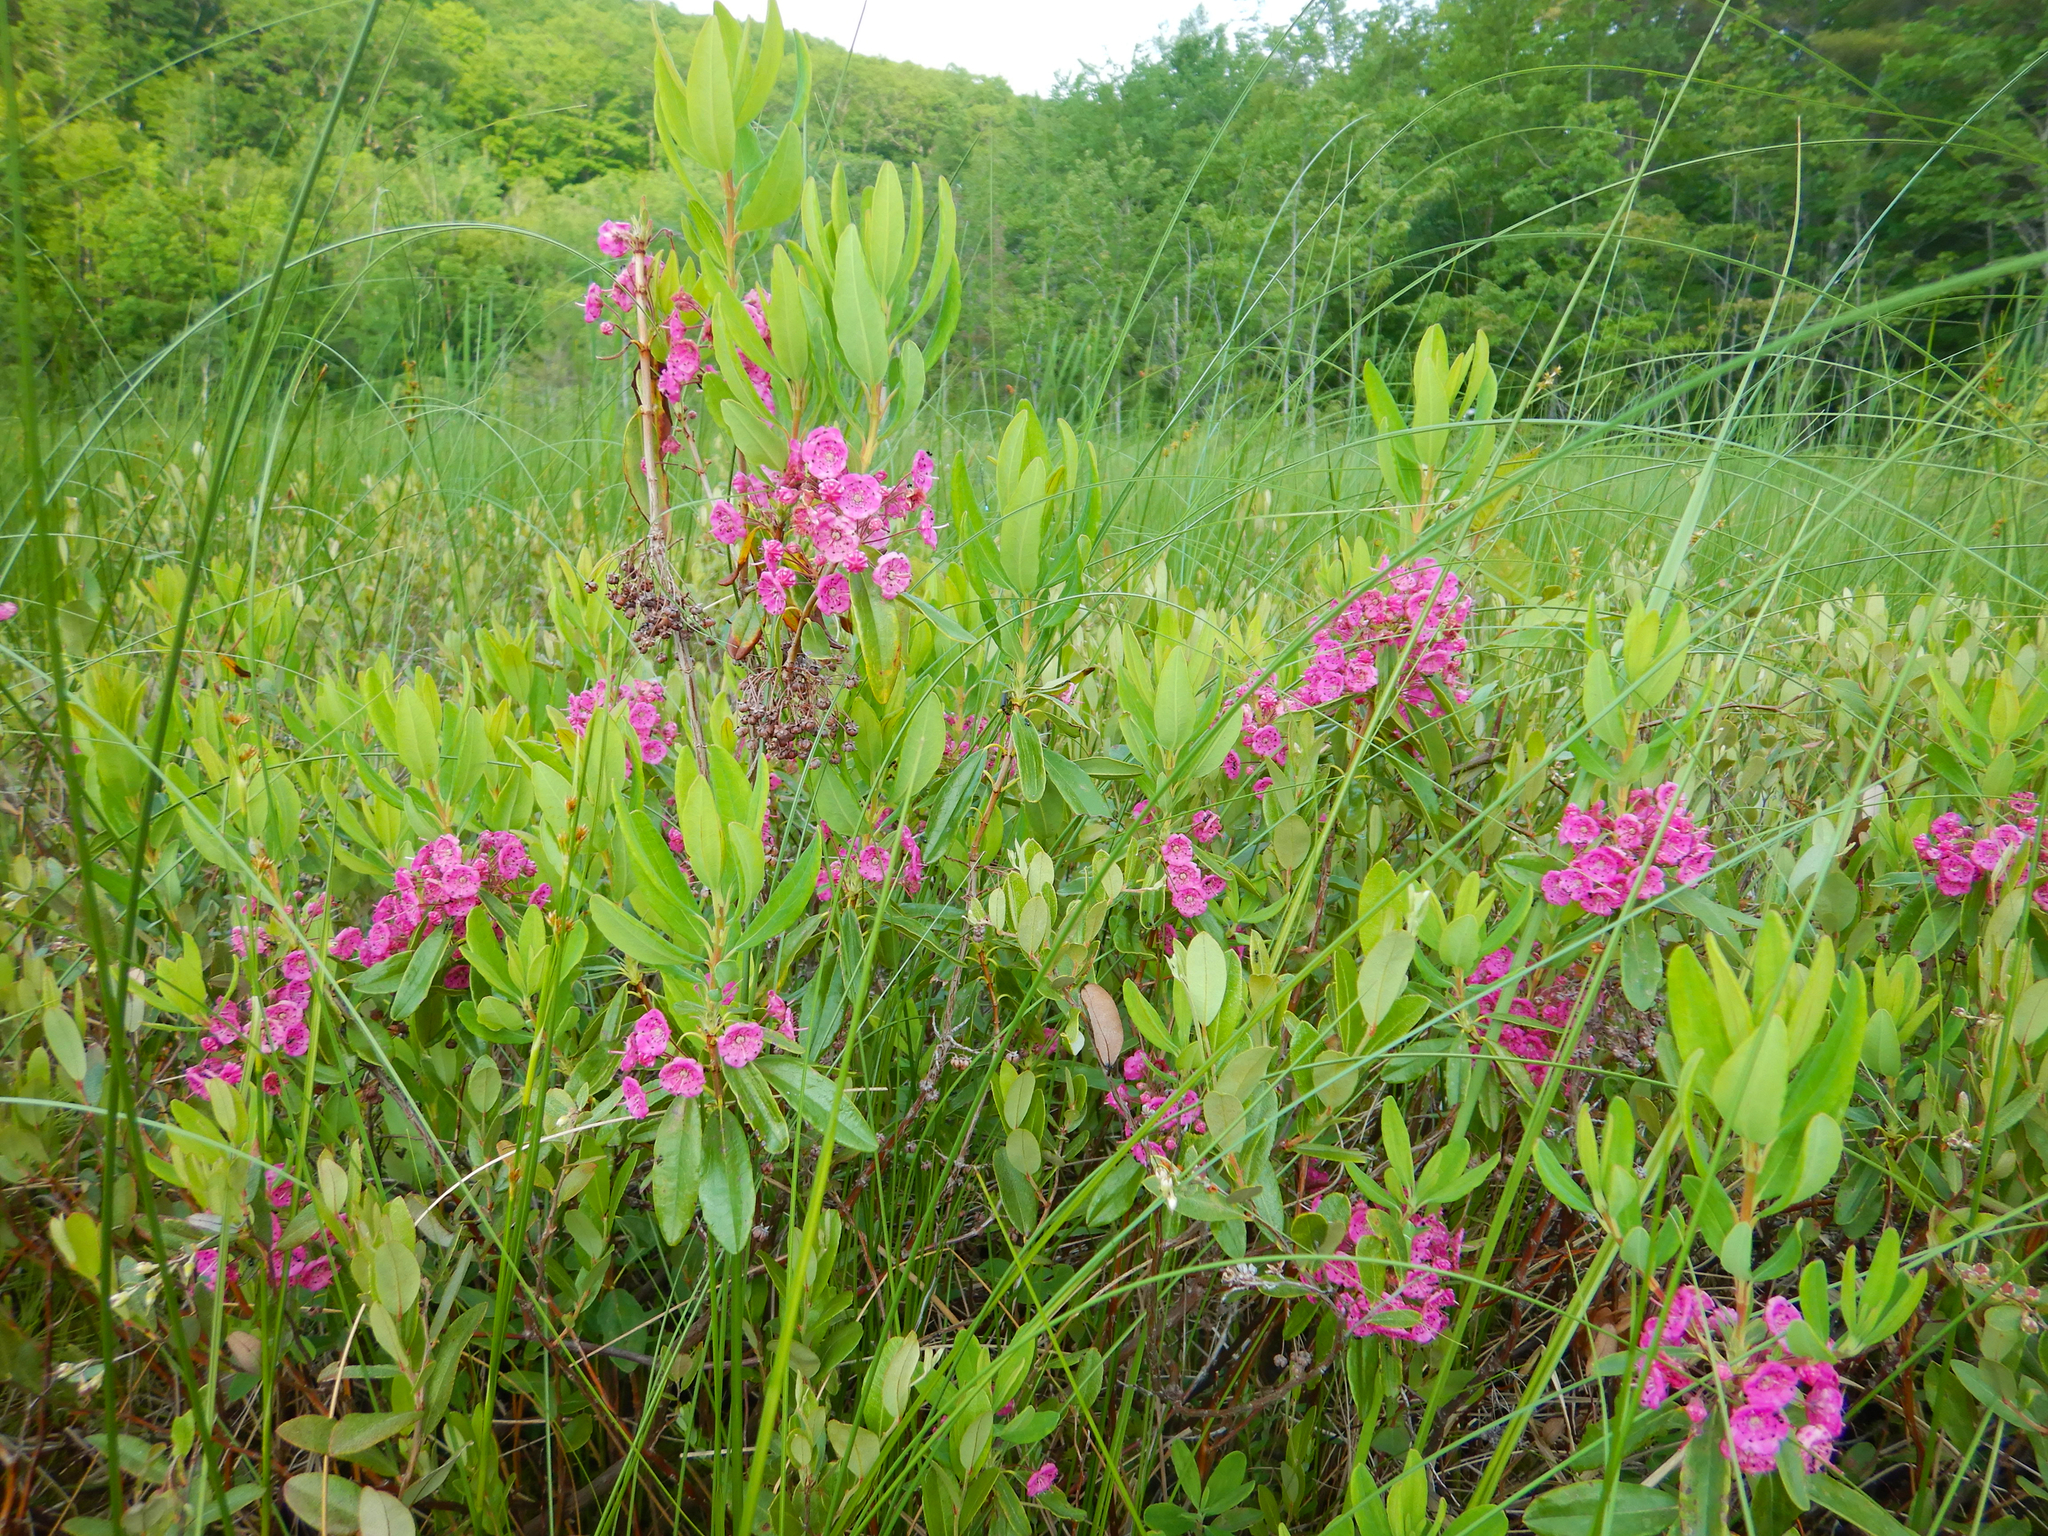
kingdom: Plantae
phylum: Tracheophyta
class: Magnoliopsida
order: Ericales
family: Ericaceae
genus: Kalmia
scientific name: Kalmia angustifolia
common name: Sheep-laurel
